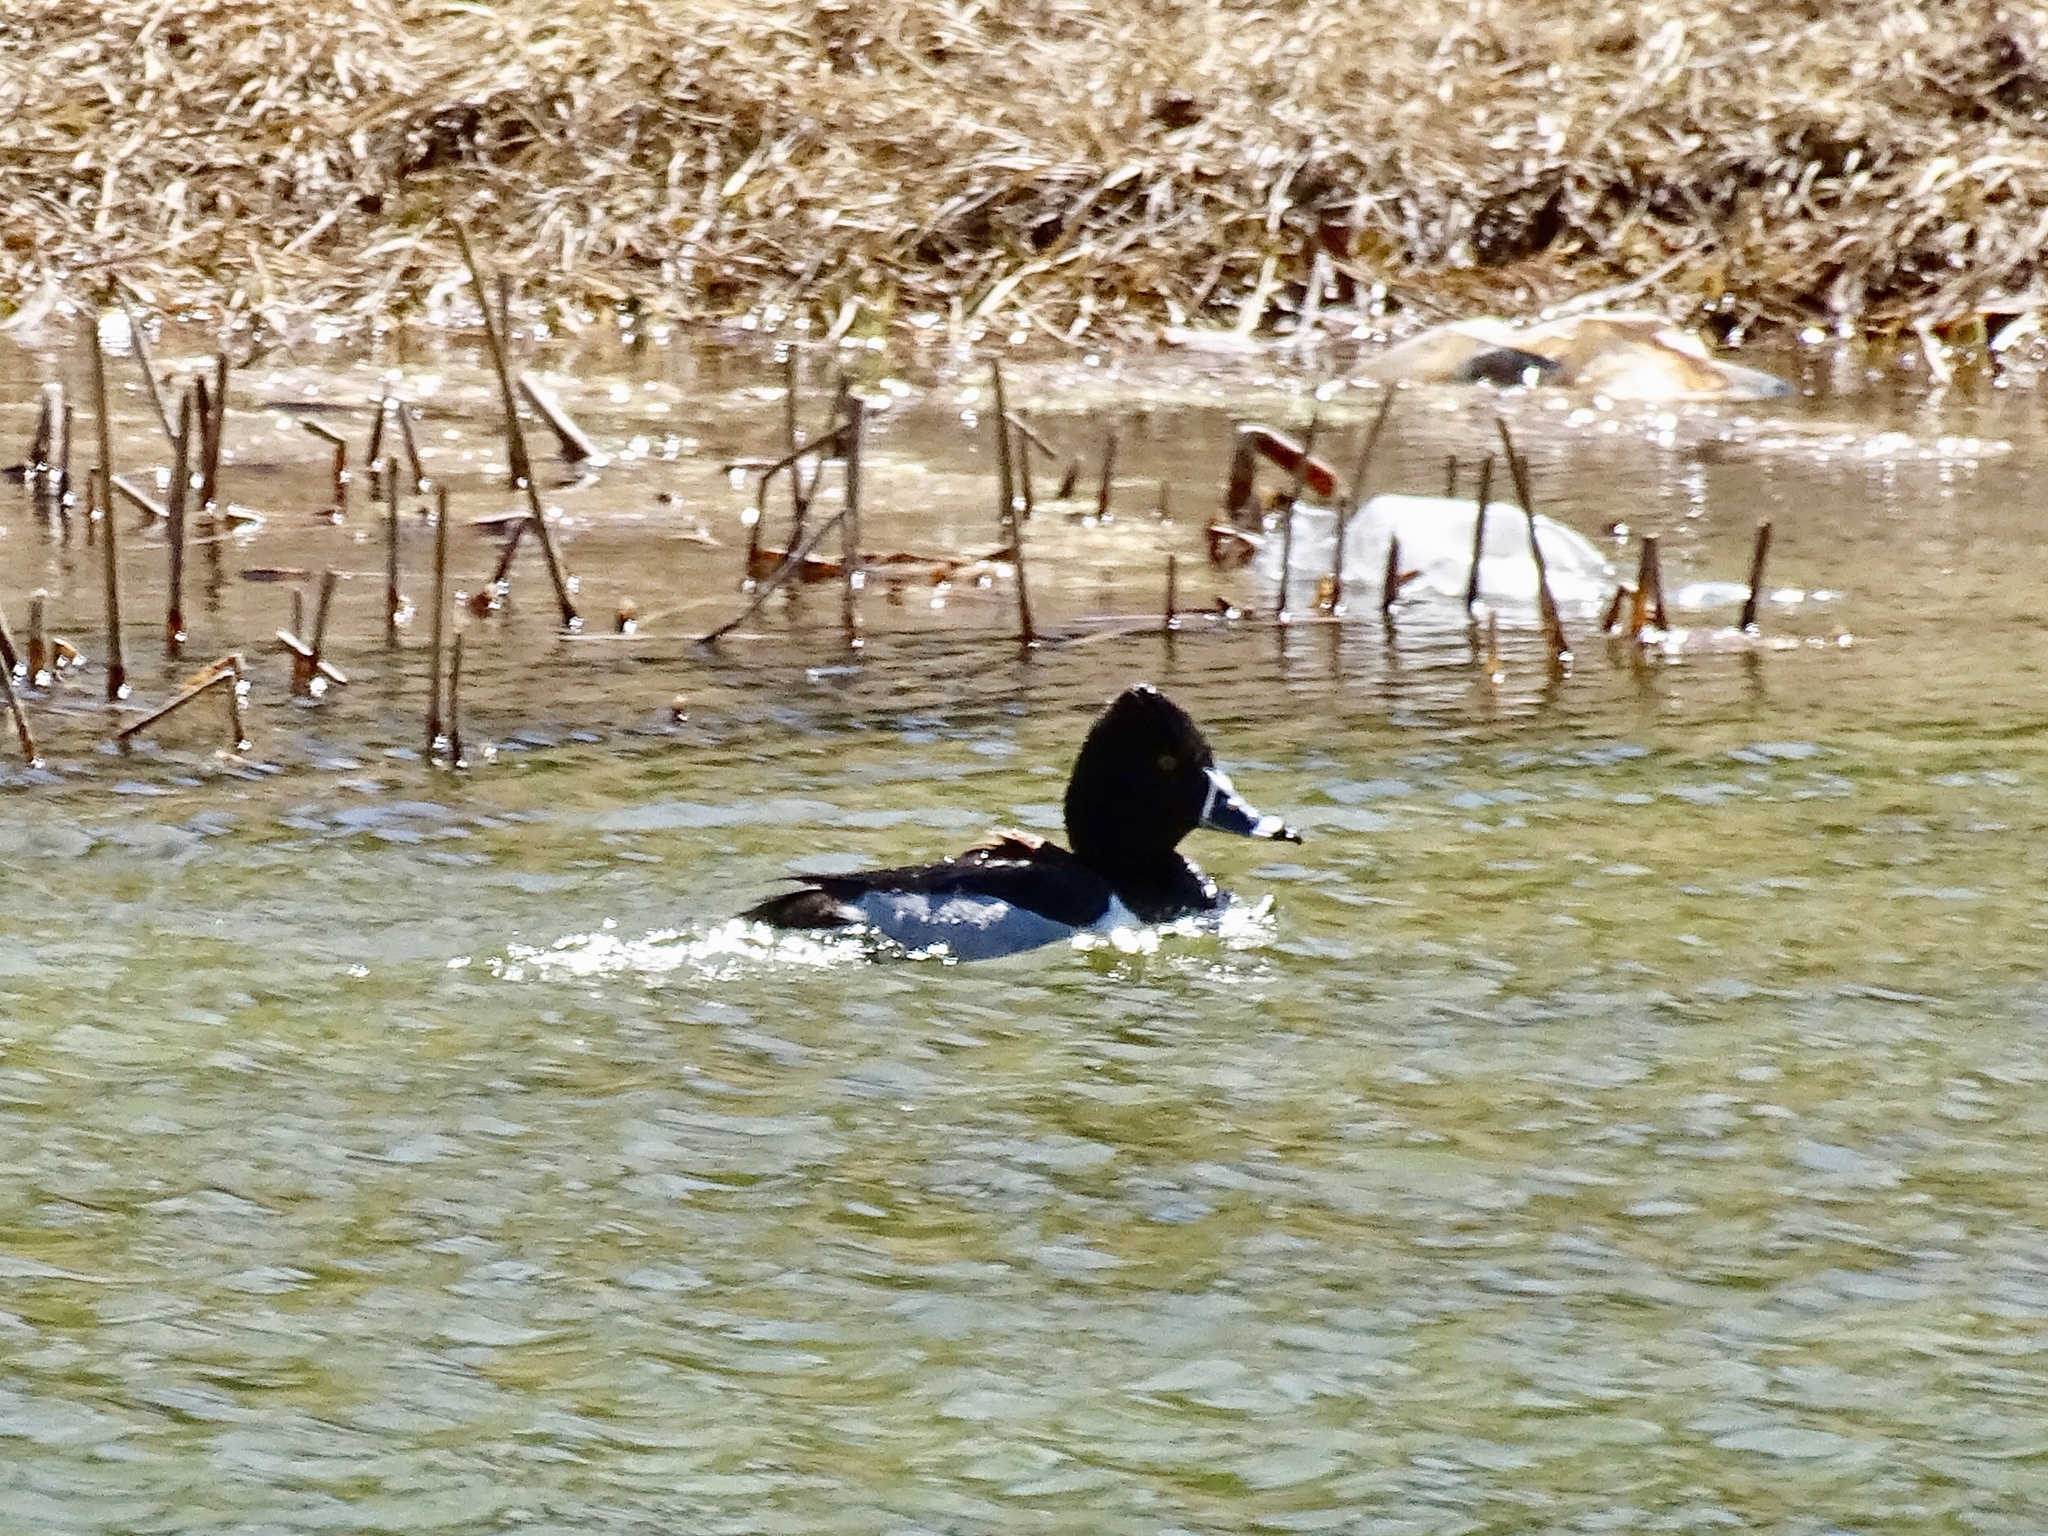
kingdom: Animalia
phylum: Chordata
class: Aves
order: Anseriformes
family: Anatidae
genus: Aythya
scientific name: Aythya collaris
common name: Ring-necked duck
